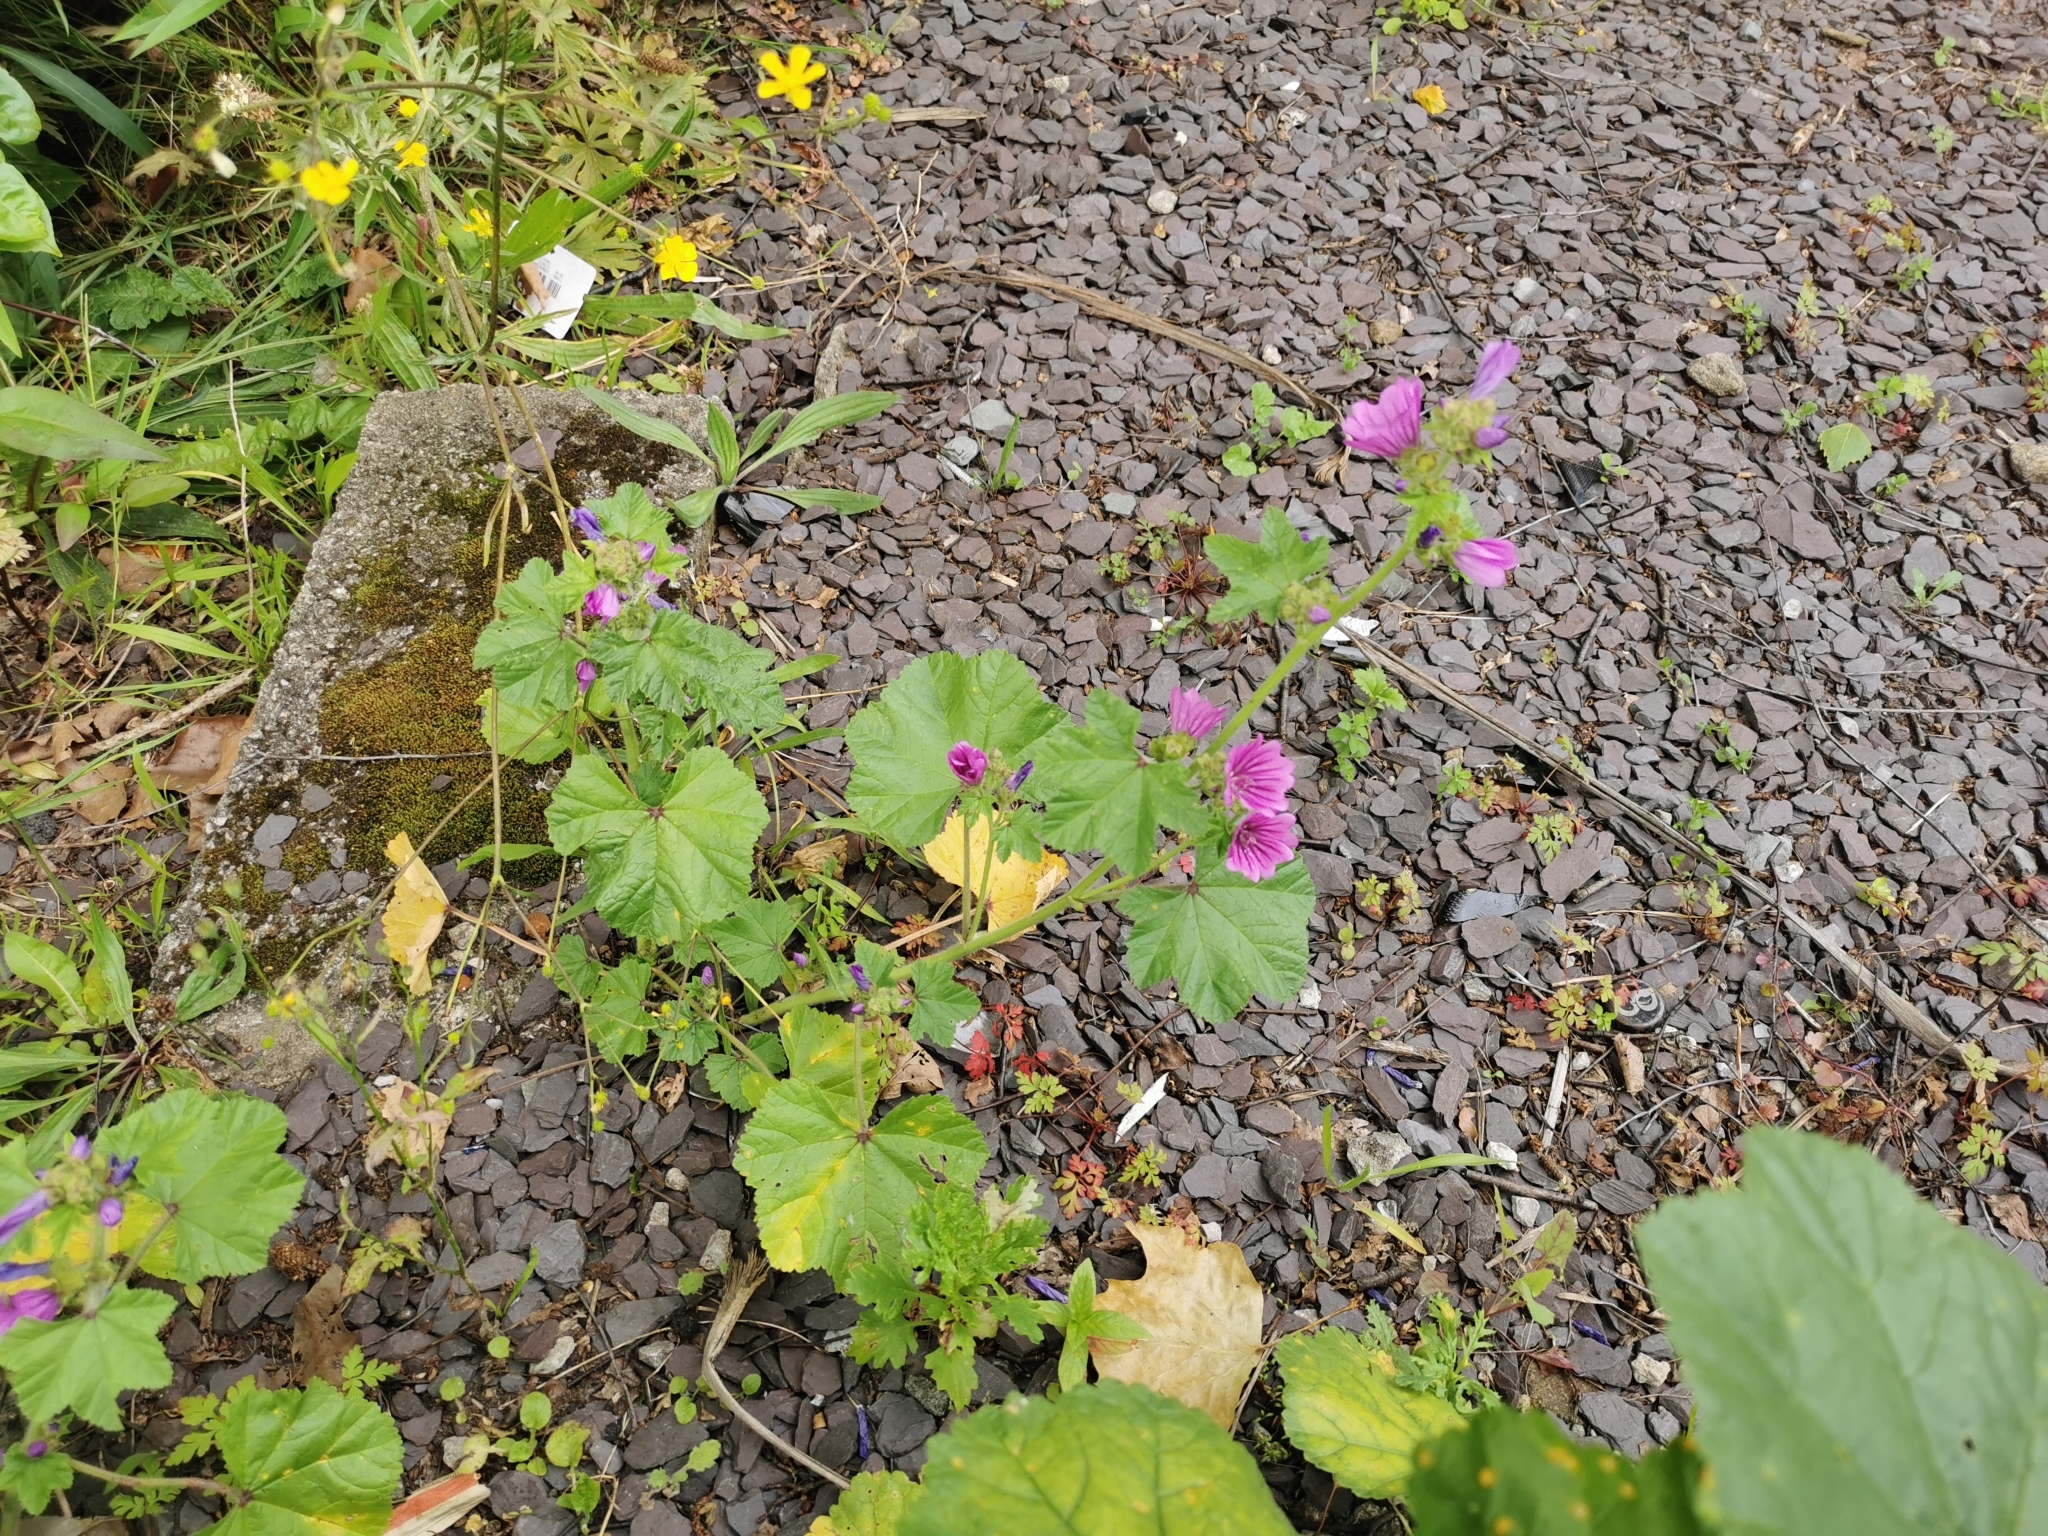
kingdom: Plantae
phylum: Tracheophyta
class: Magnoliopsida
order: Malvales
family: Malvaceae
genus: Malva
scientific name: Malva sylvestris
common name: Common mallow
